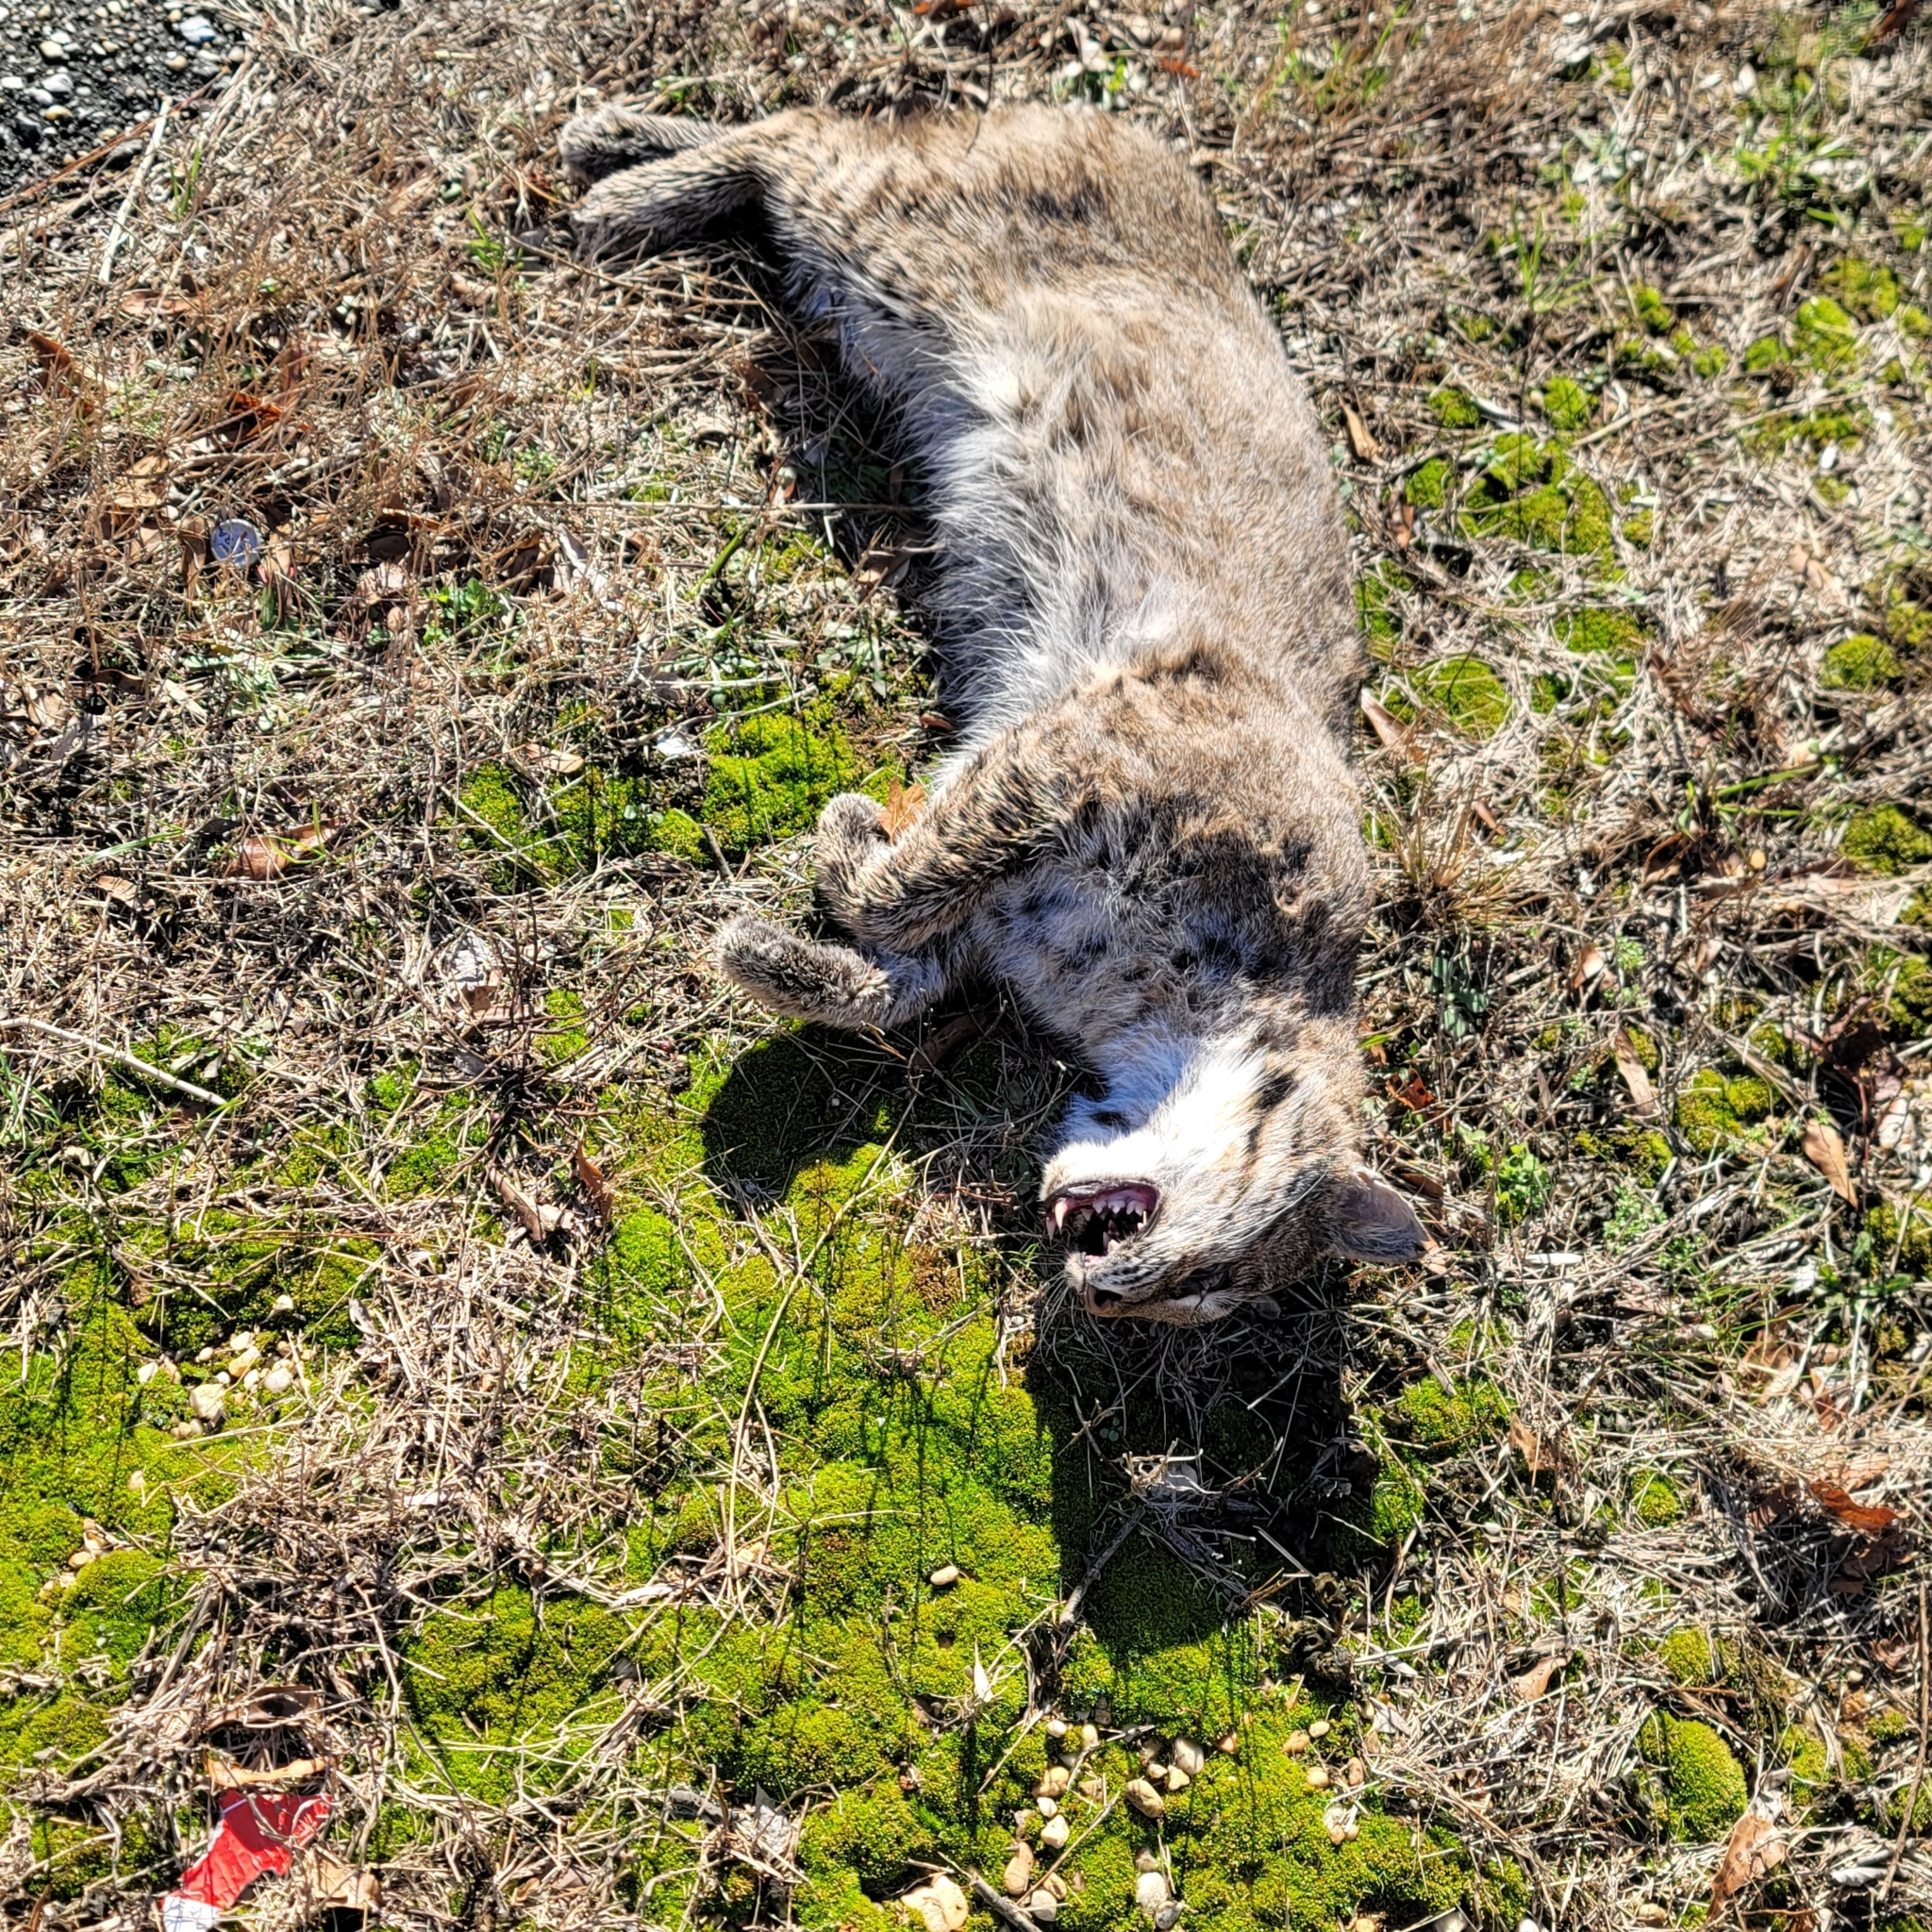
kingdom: Animalia
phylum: Chordata
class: Mammalia
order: Carnivora
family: Felidae
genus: Lynx
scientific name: Lynx rufus
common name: Bobcat
